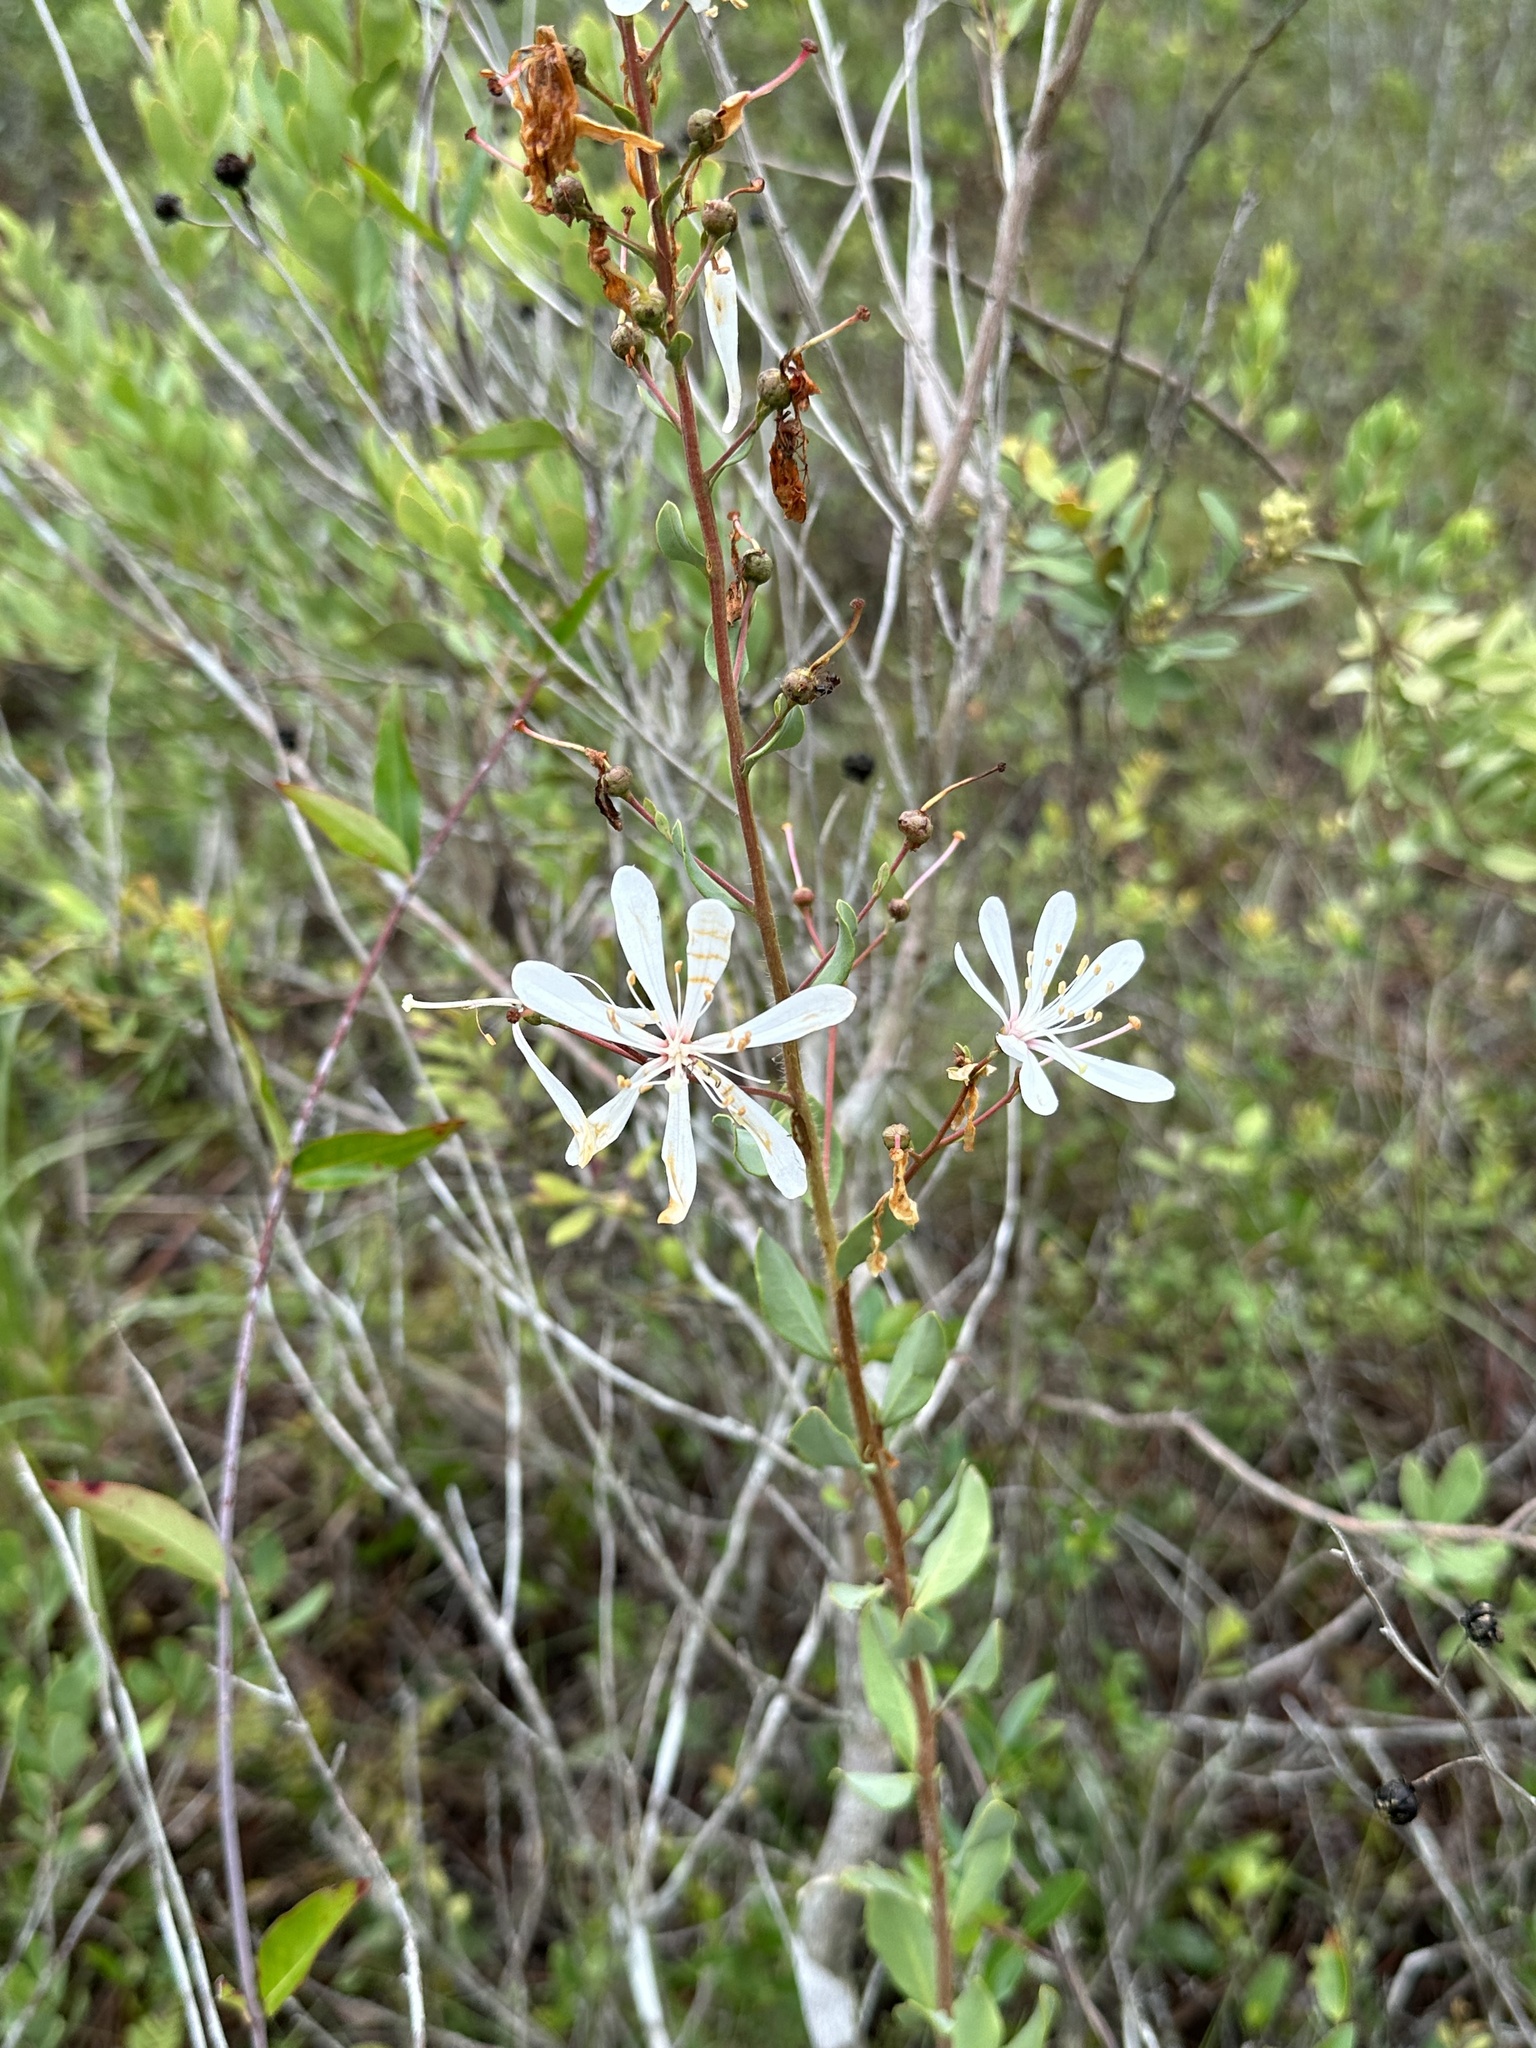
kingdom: Plantae
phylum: Tracheophyta
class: Magnoliopsida
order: Ericales
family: Ericaceae
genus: Bejaria
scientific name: Bejaria racemosa
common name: Tarflower
